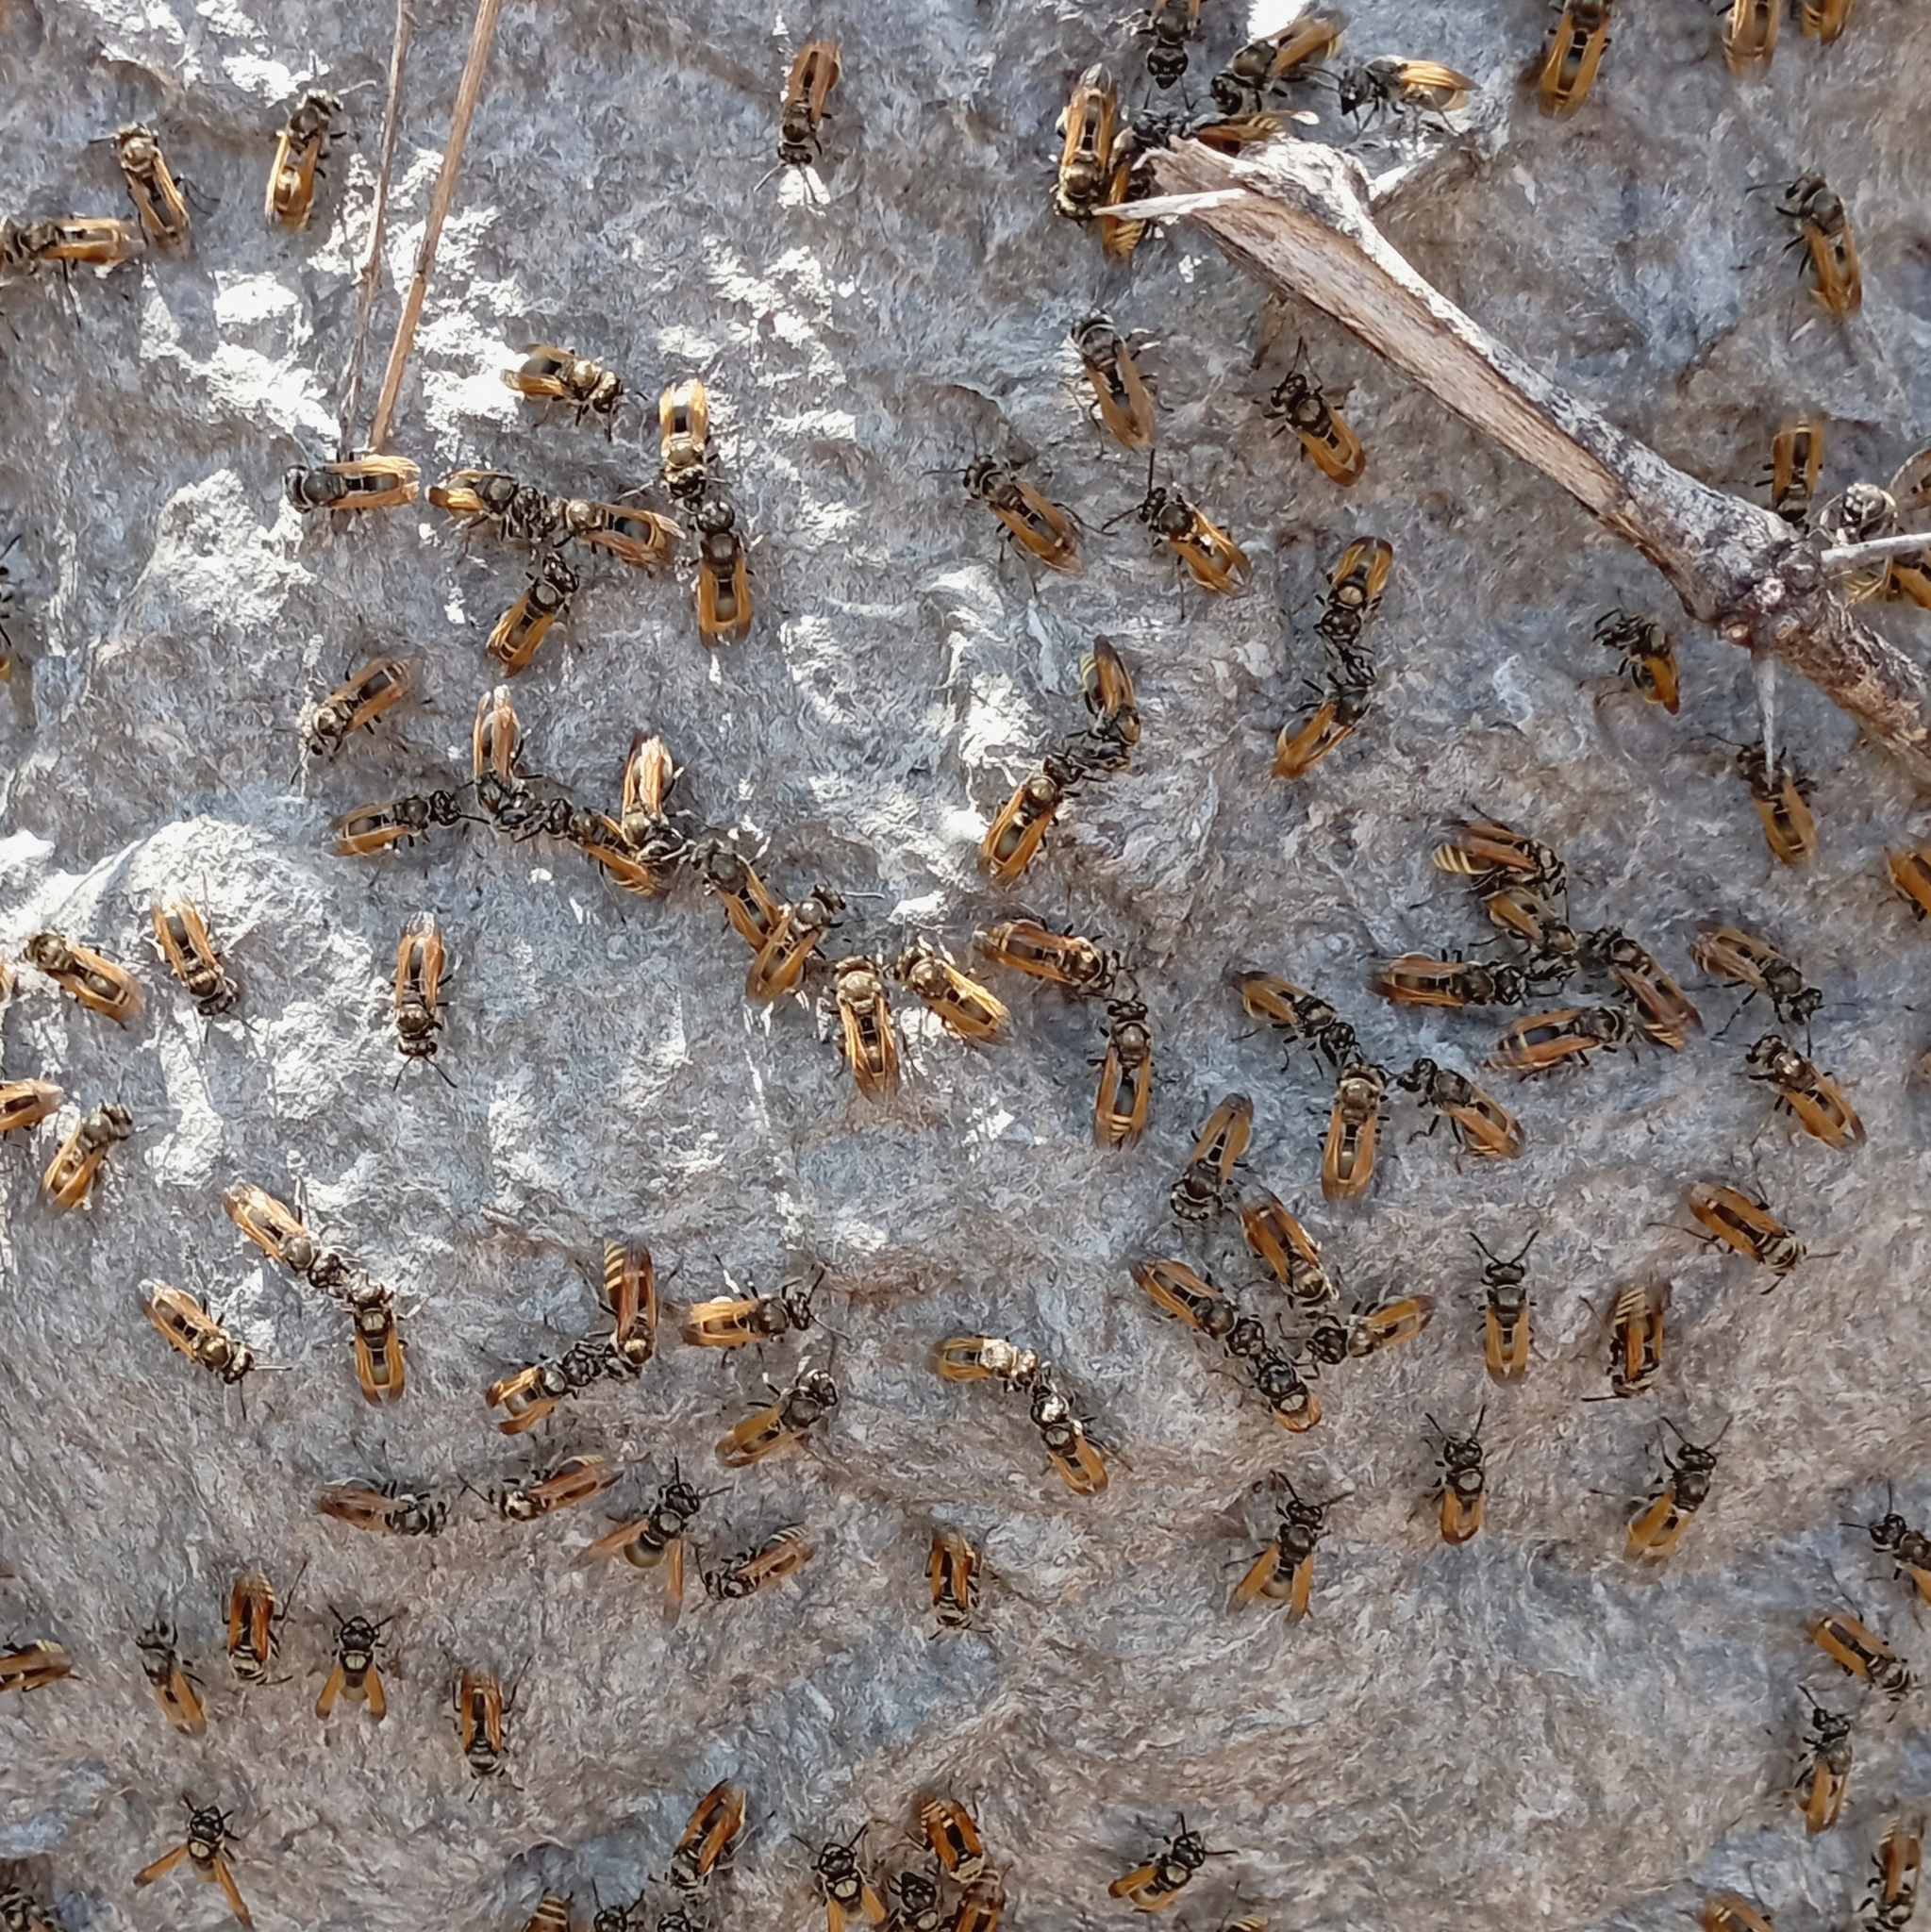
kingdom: Animalia
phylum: Arthropoda
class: Insecta
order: Hymenoptera
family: Vespidae
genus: Brachygastra
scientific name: Brachygastra mellifica
